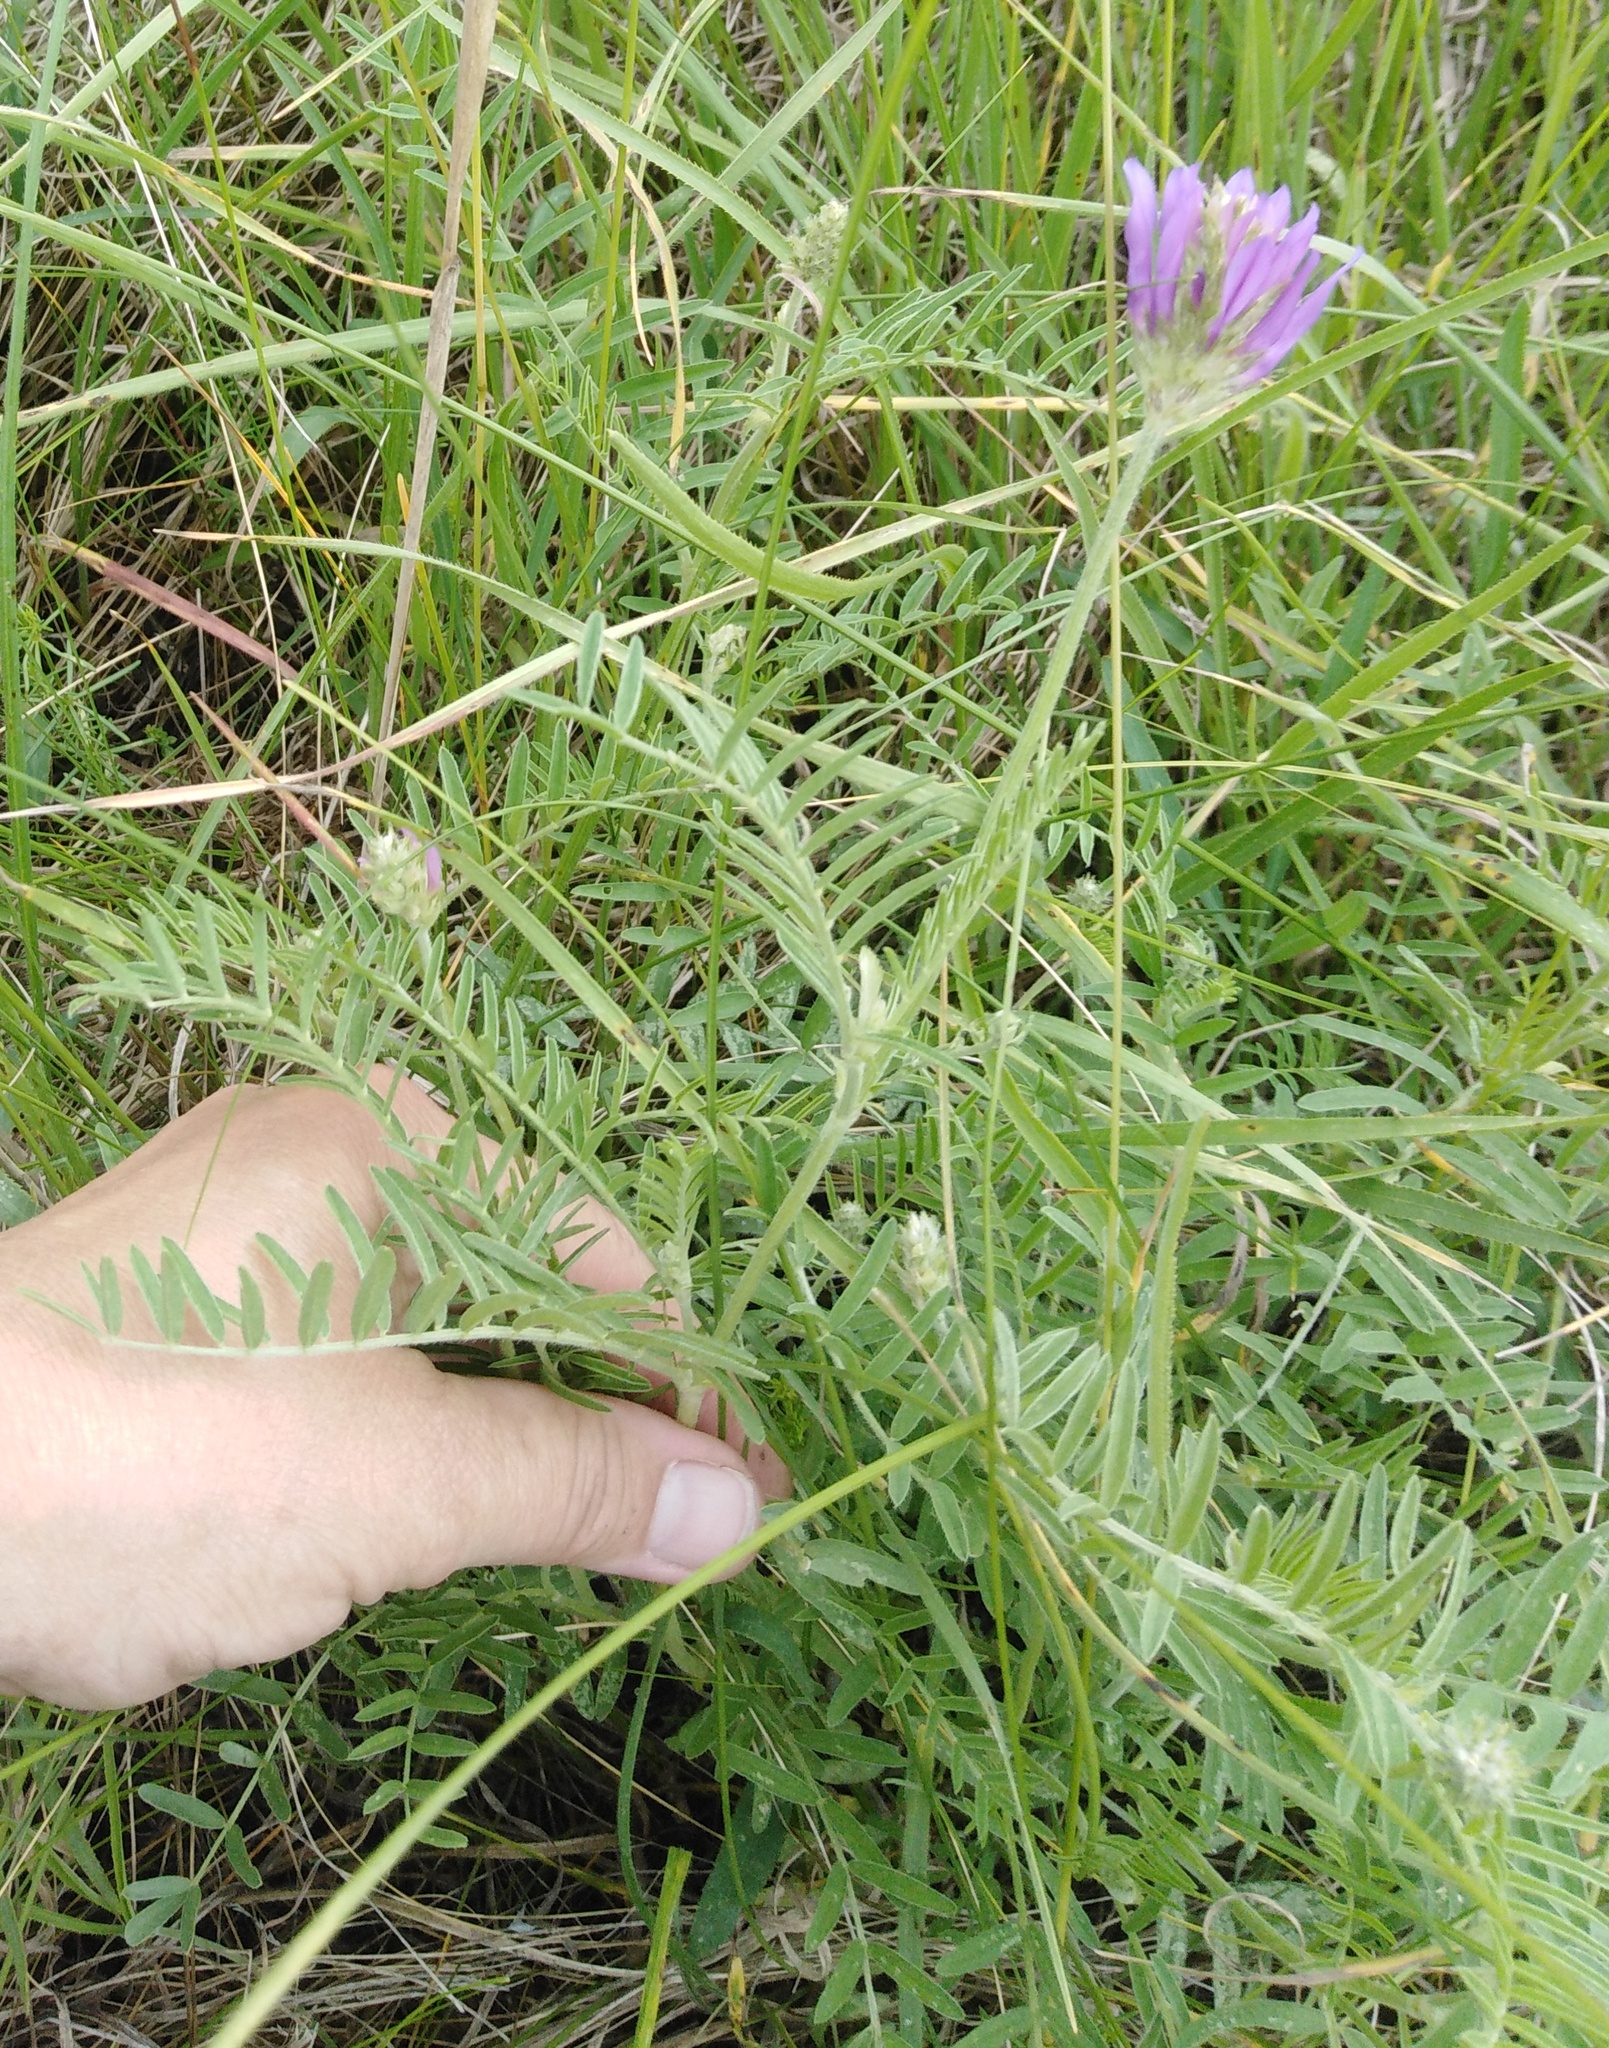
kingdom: Plantae
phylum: Tracheophyta
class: Magnoliopsida
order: Fabales
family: Fabaceae
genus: Astragalus
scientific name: Astragalus danicus
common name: Purple milk-vetch
